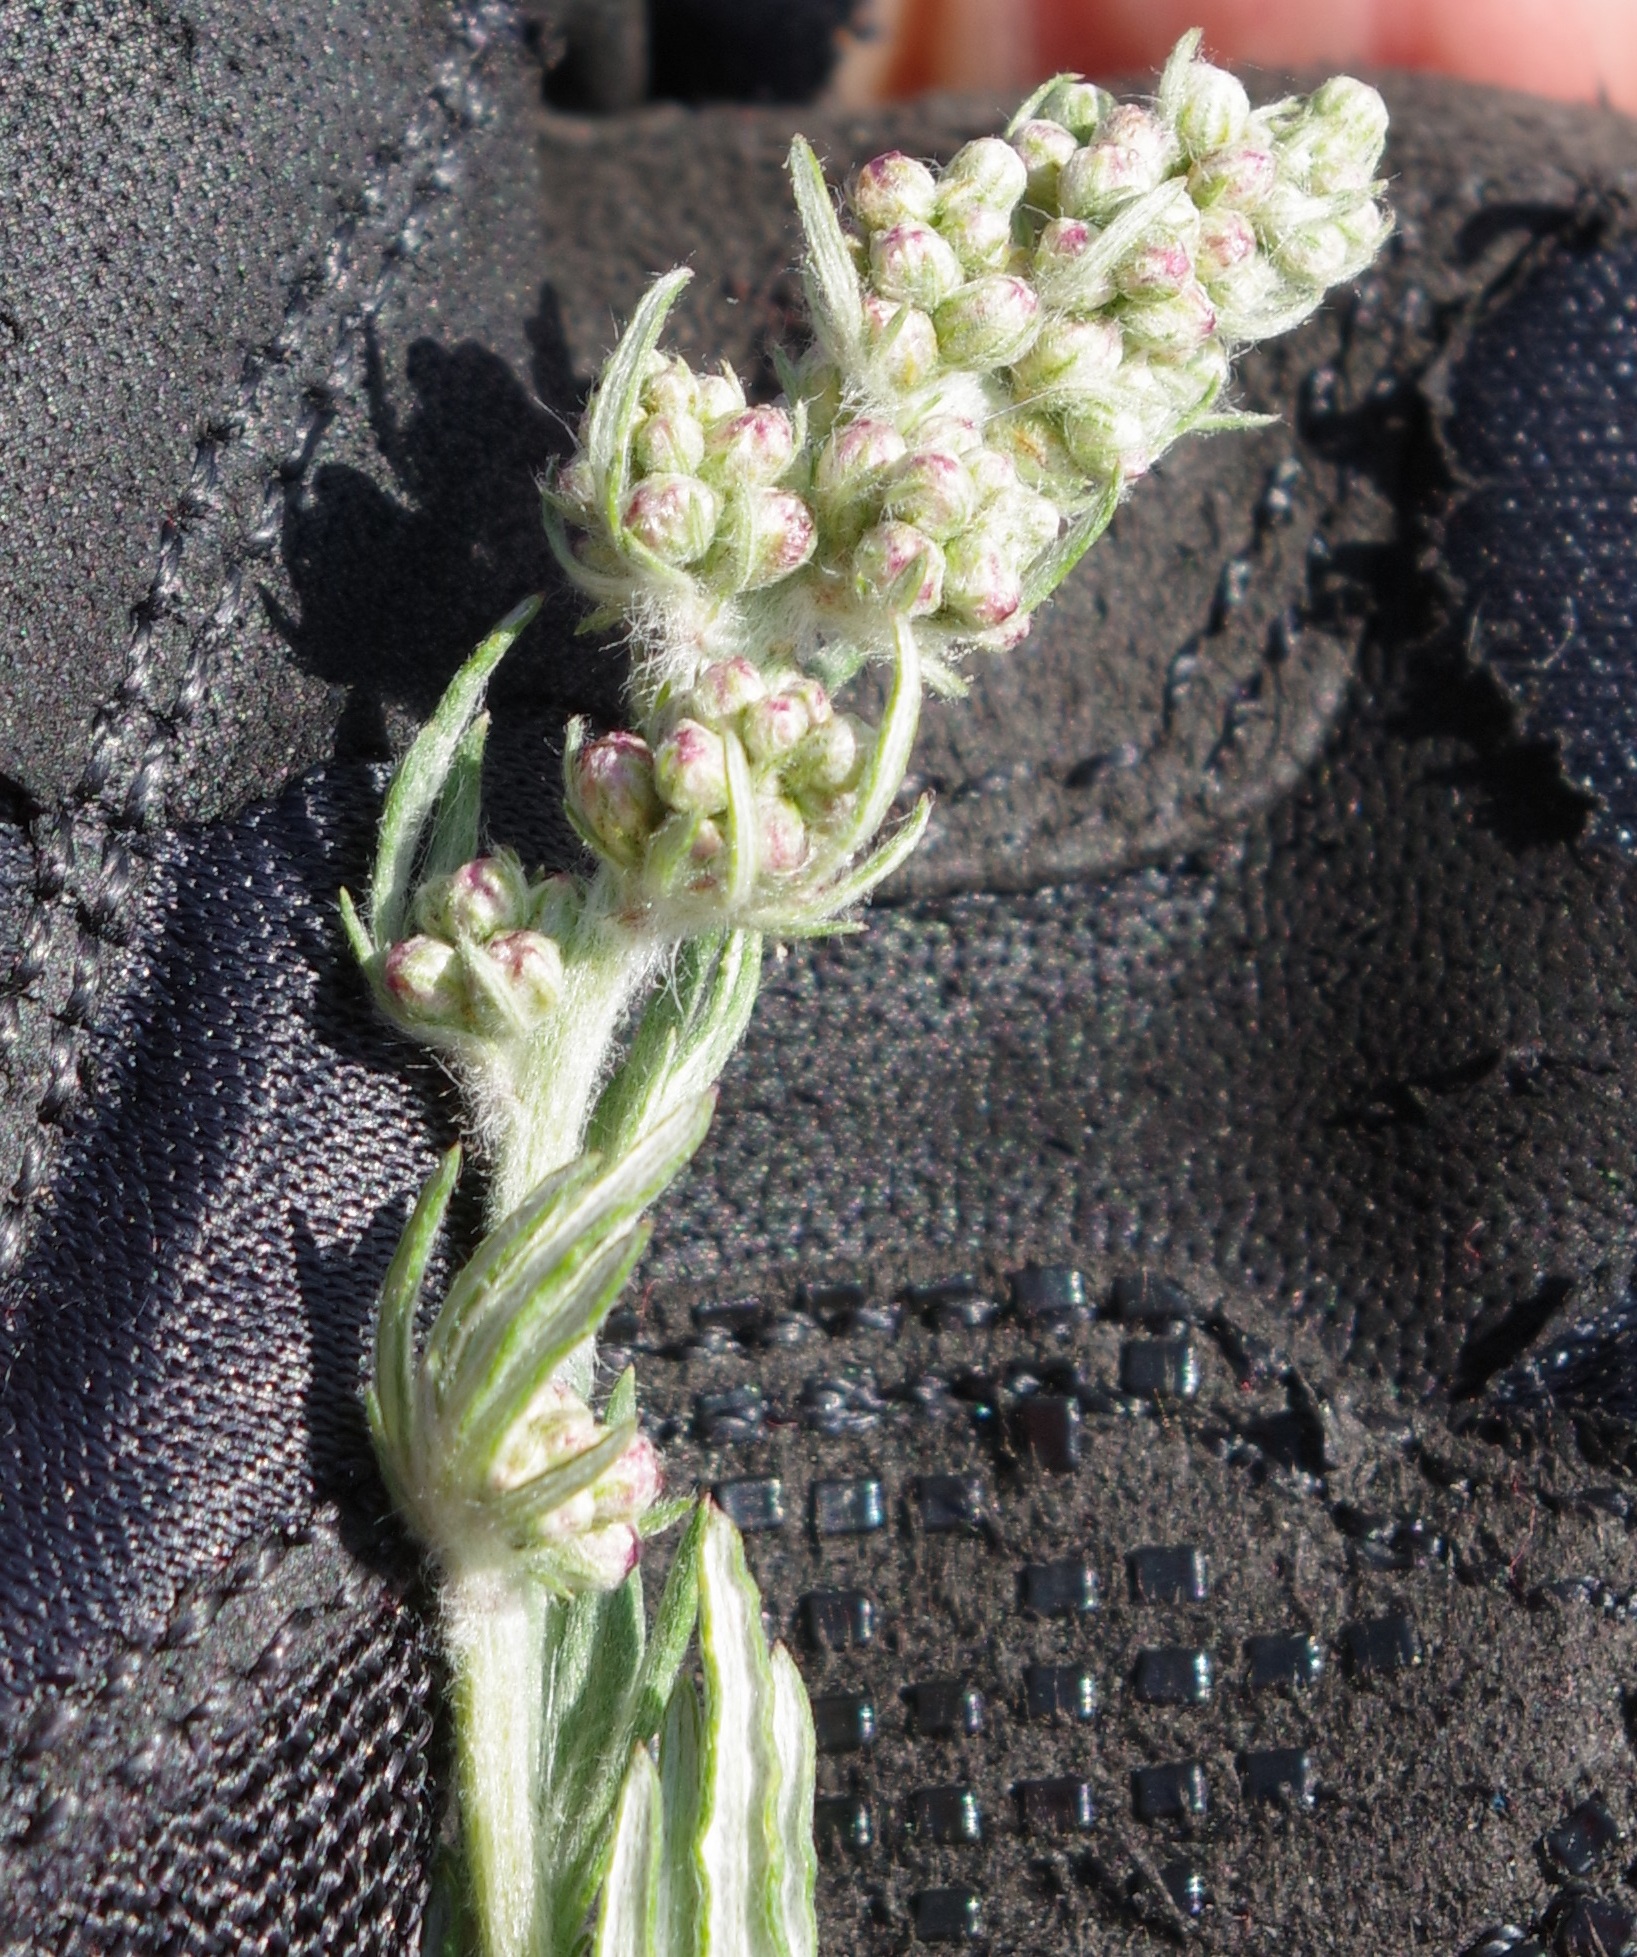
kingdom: Plantae
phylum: Tracheophyta
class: Magnoliopsida
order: Asterales
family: Asteraceae
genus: Artemisia
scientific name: Artemisia vulgaris
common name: Mugwort
